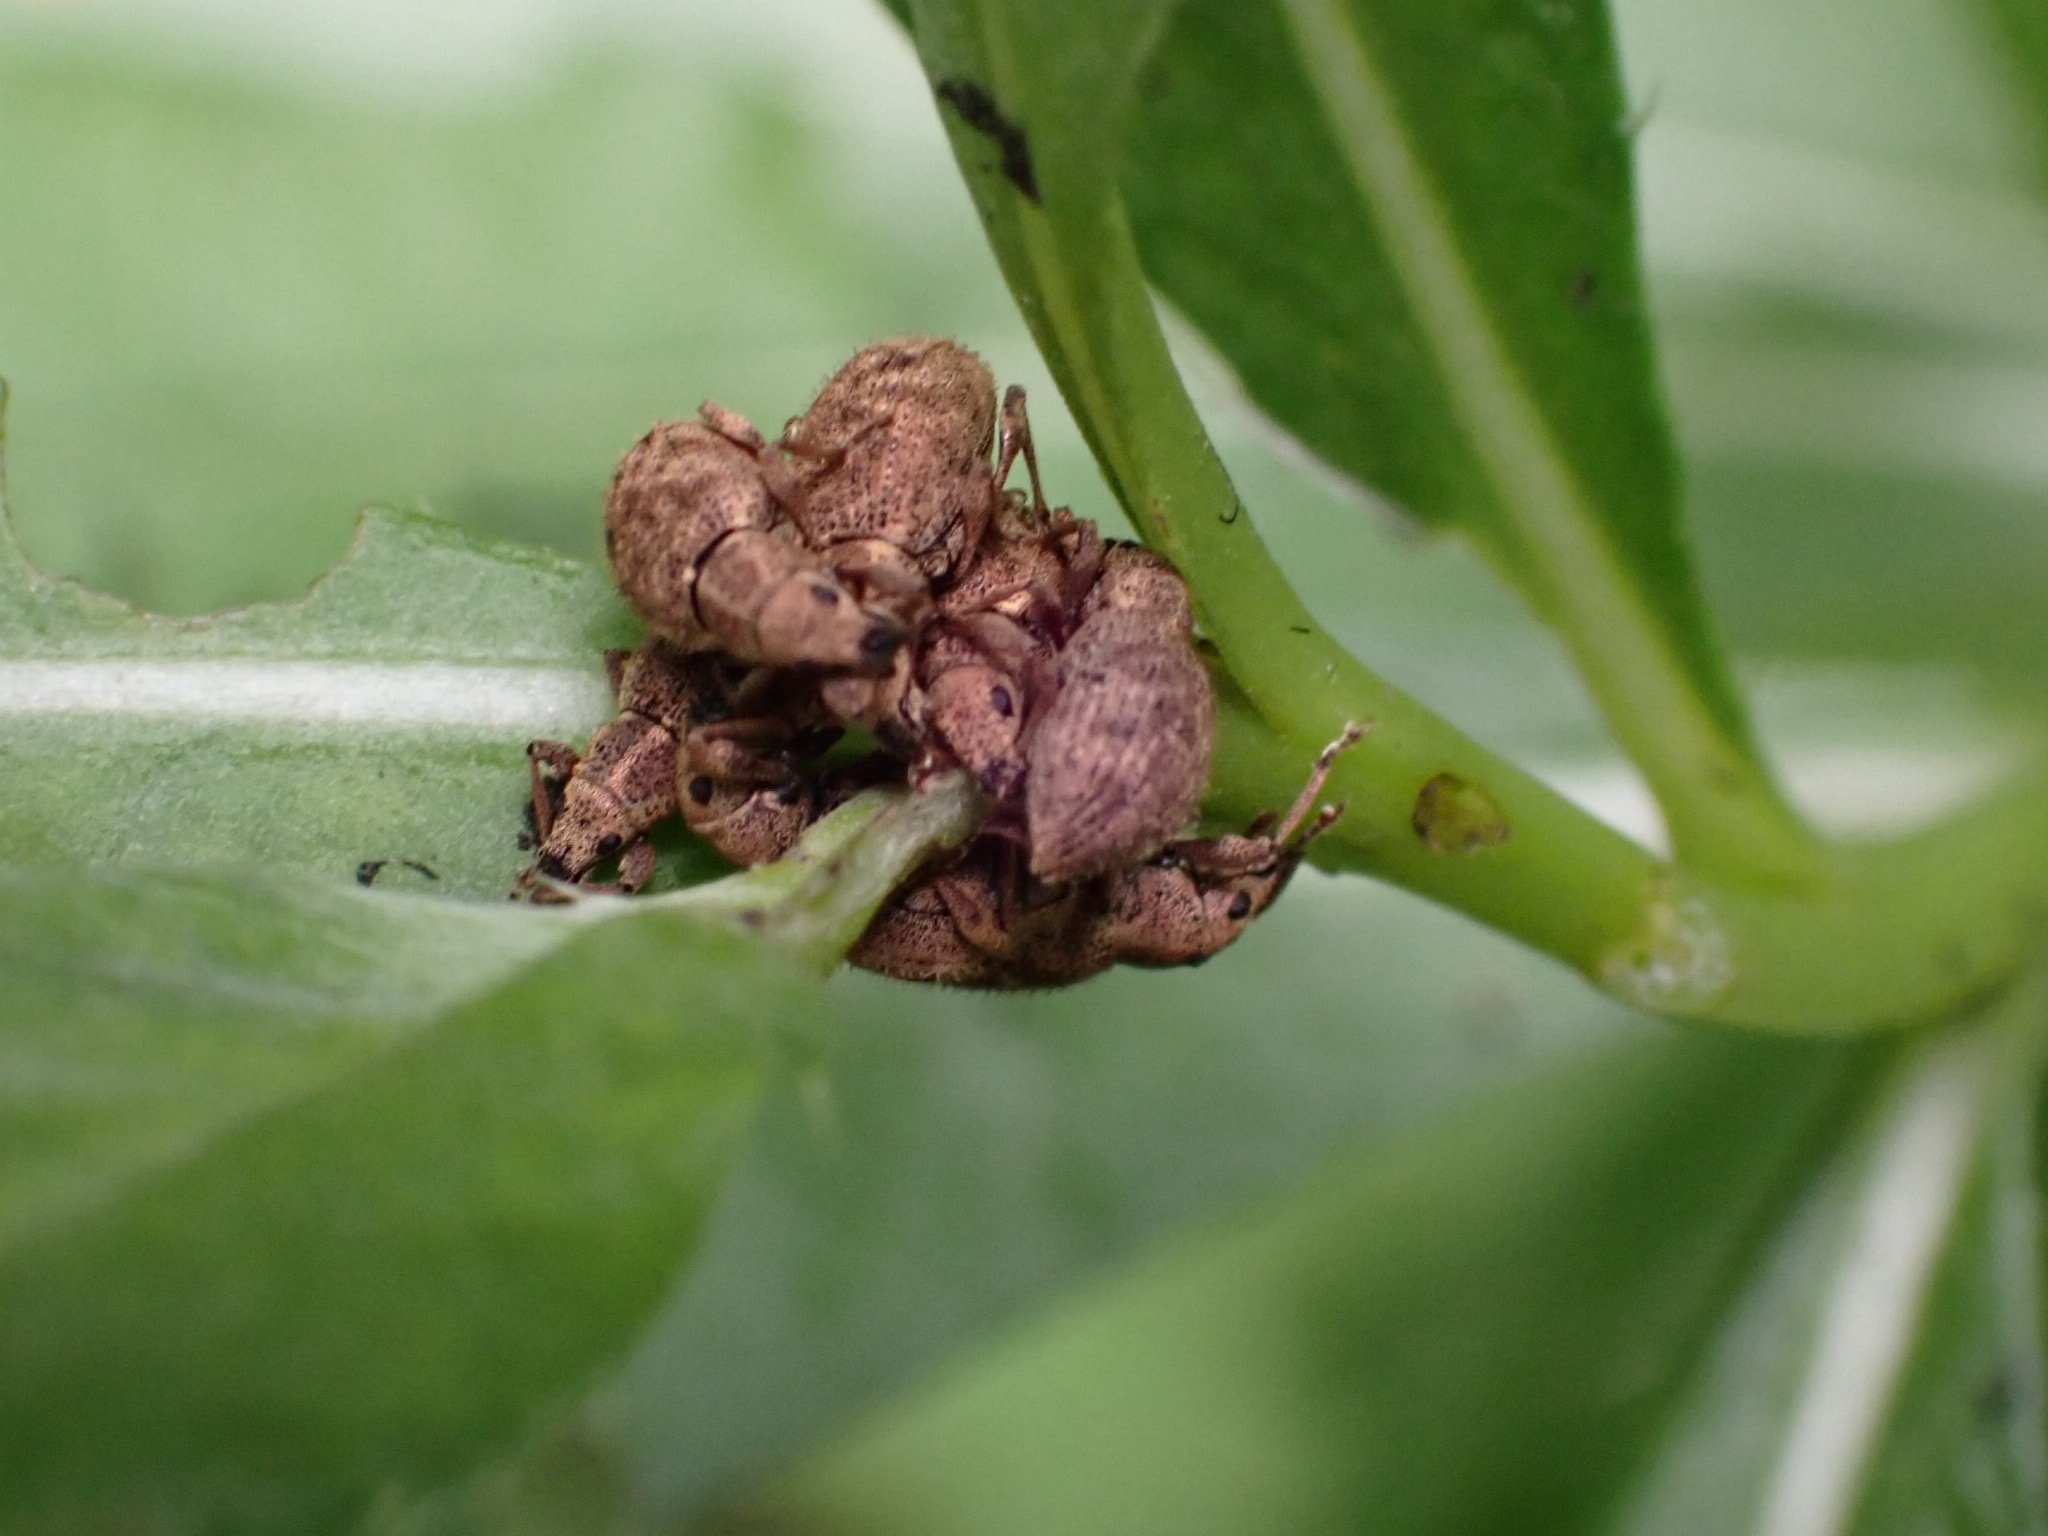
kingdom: Animalia
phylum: Arthropoda
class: Insecta
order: Coleoptera
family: Curculionidae
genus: Sciaphilus
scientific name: Sciaphilus asperatus
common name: Weevil
